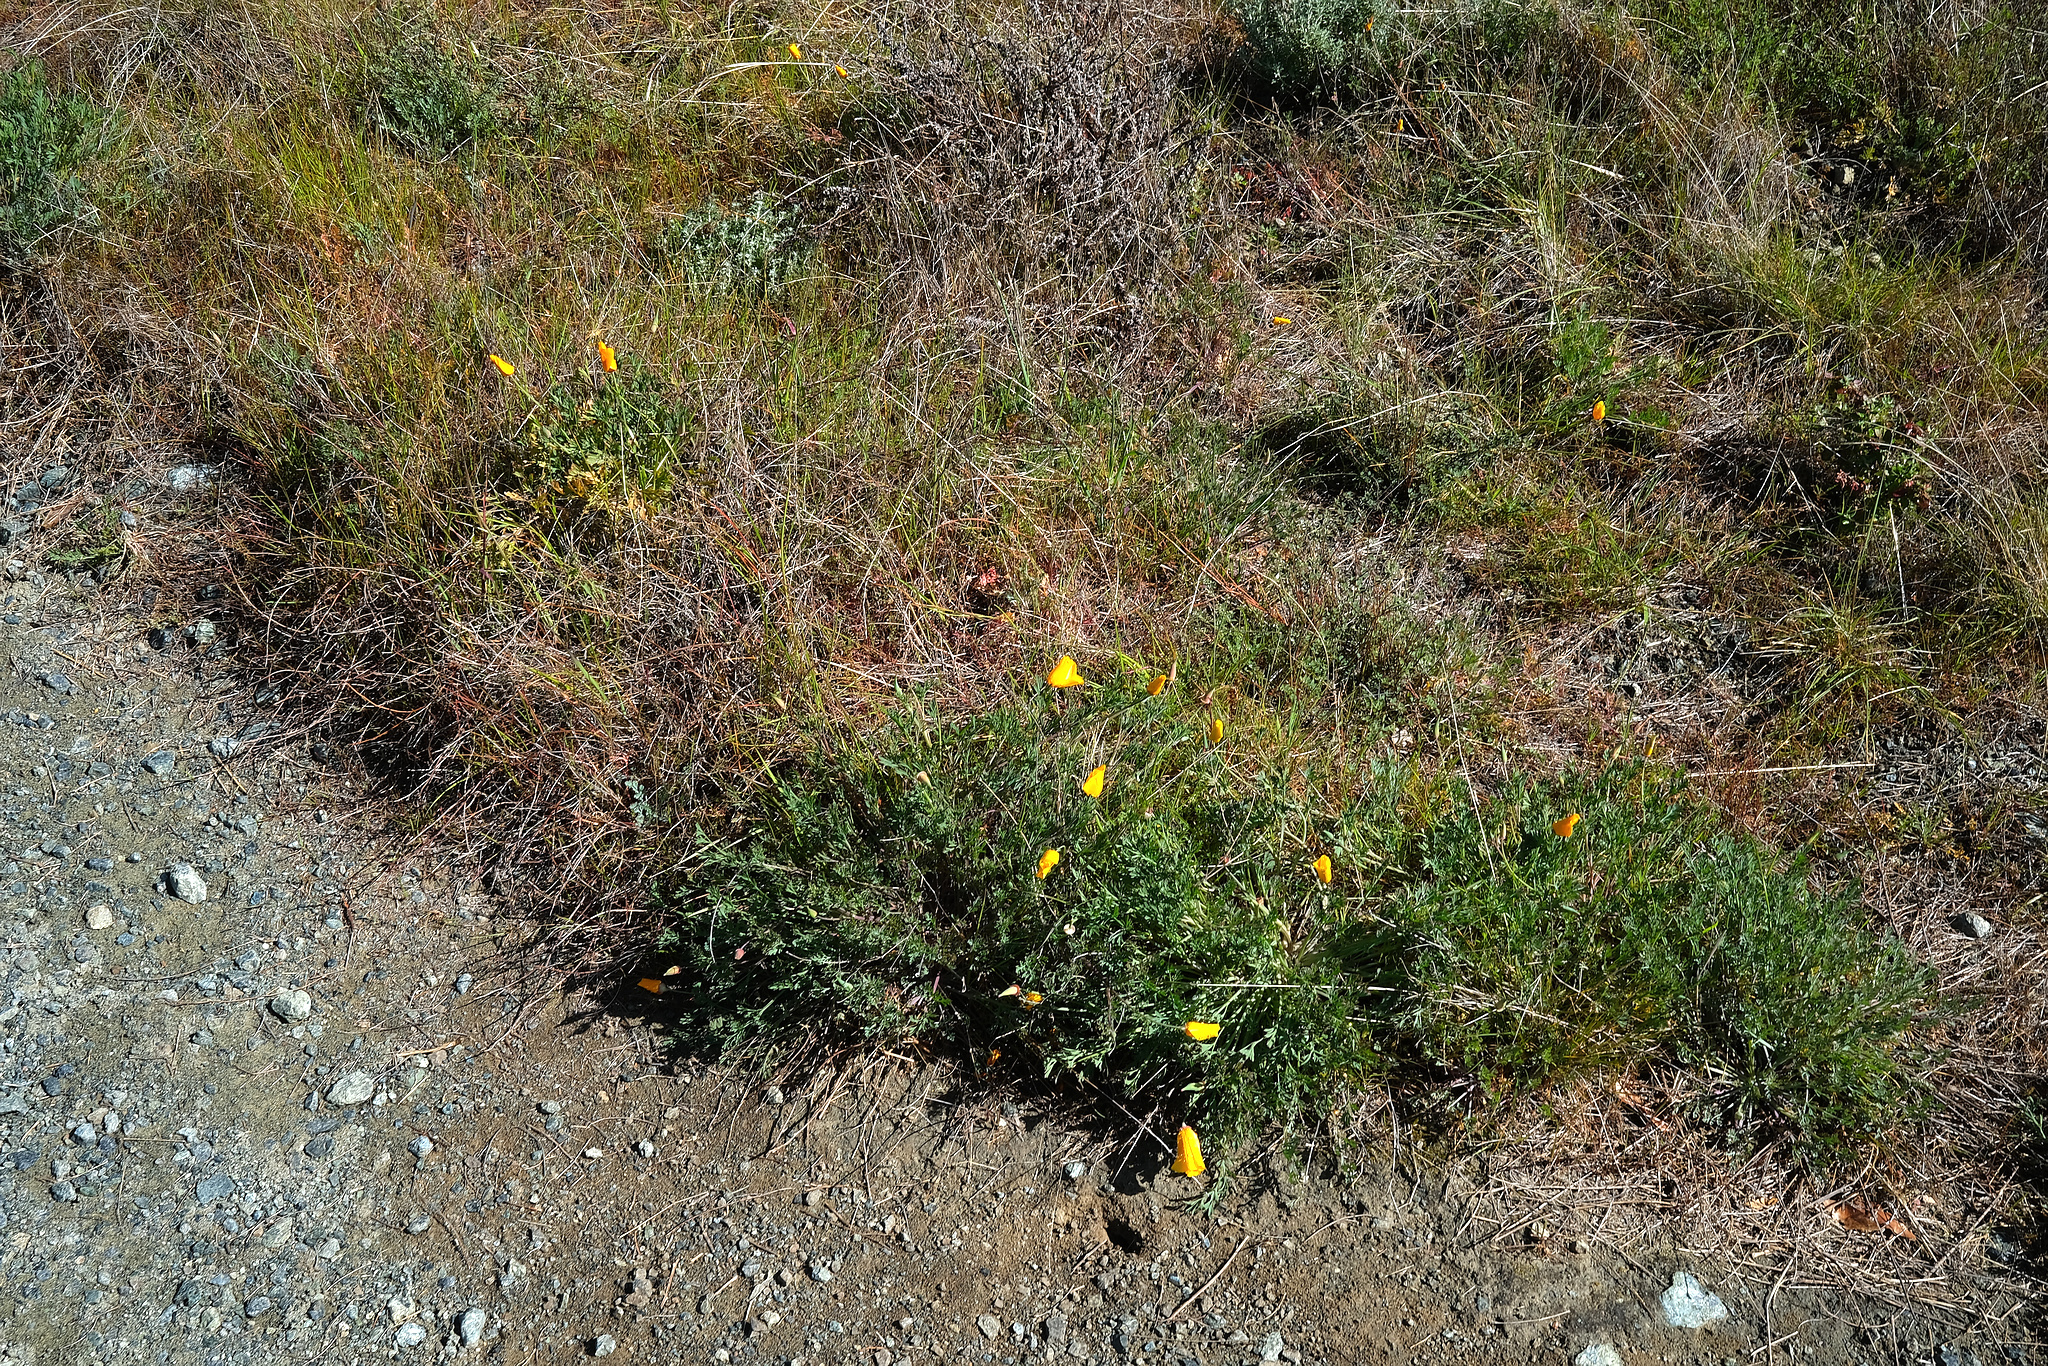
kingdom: Plantae
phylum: Tracheophyta
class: Magnoliopsida
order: Ranunculales
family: Papaveraceae
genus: Eschscholzia
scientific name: Eschscholzia californica
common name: California poppy
